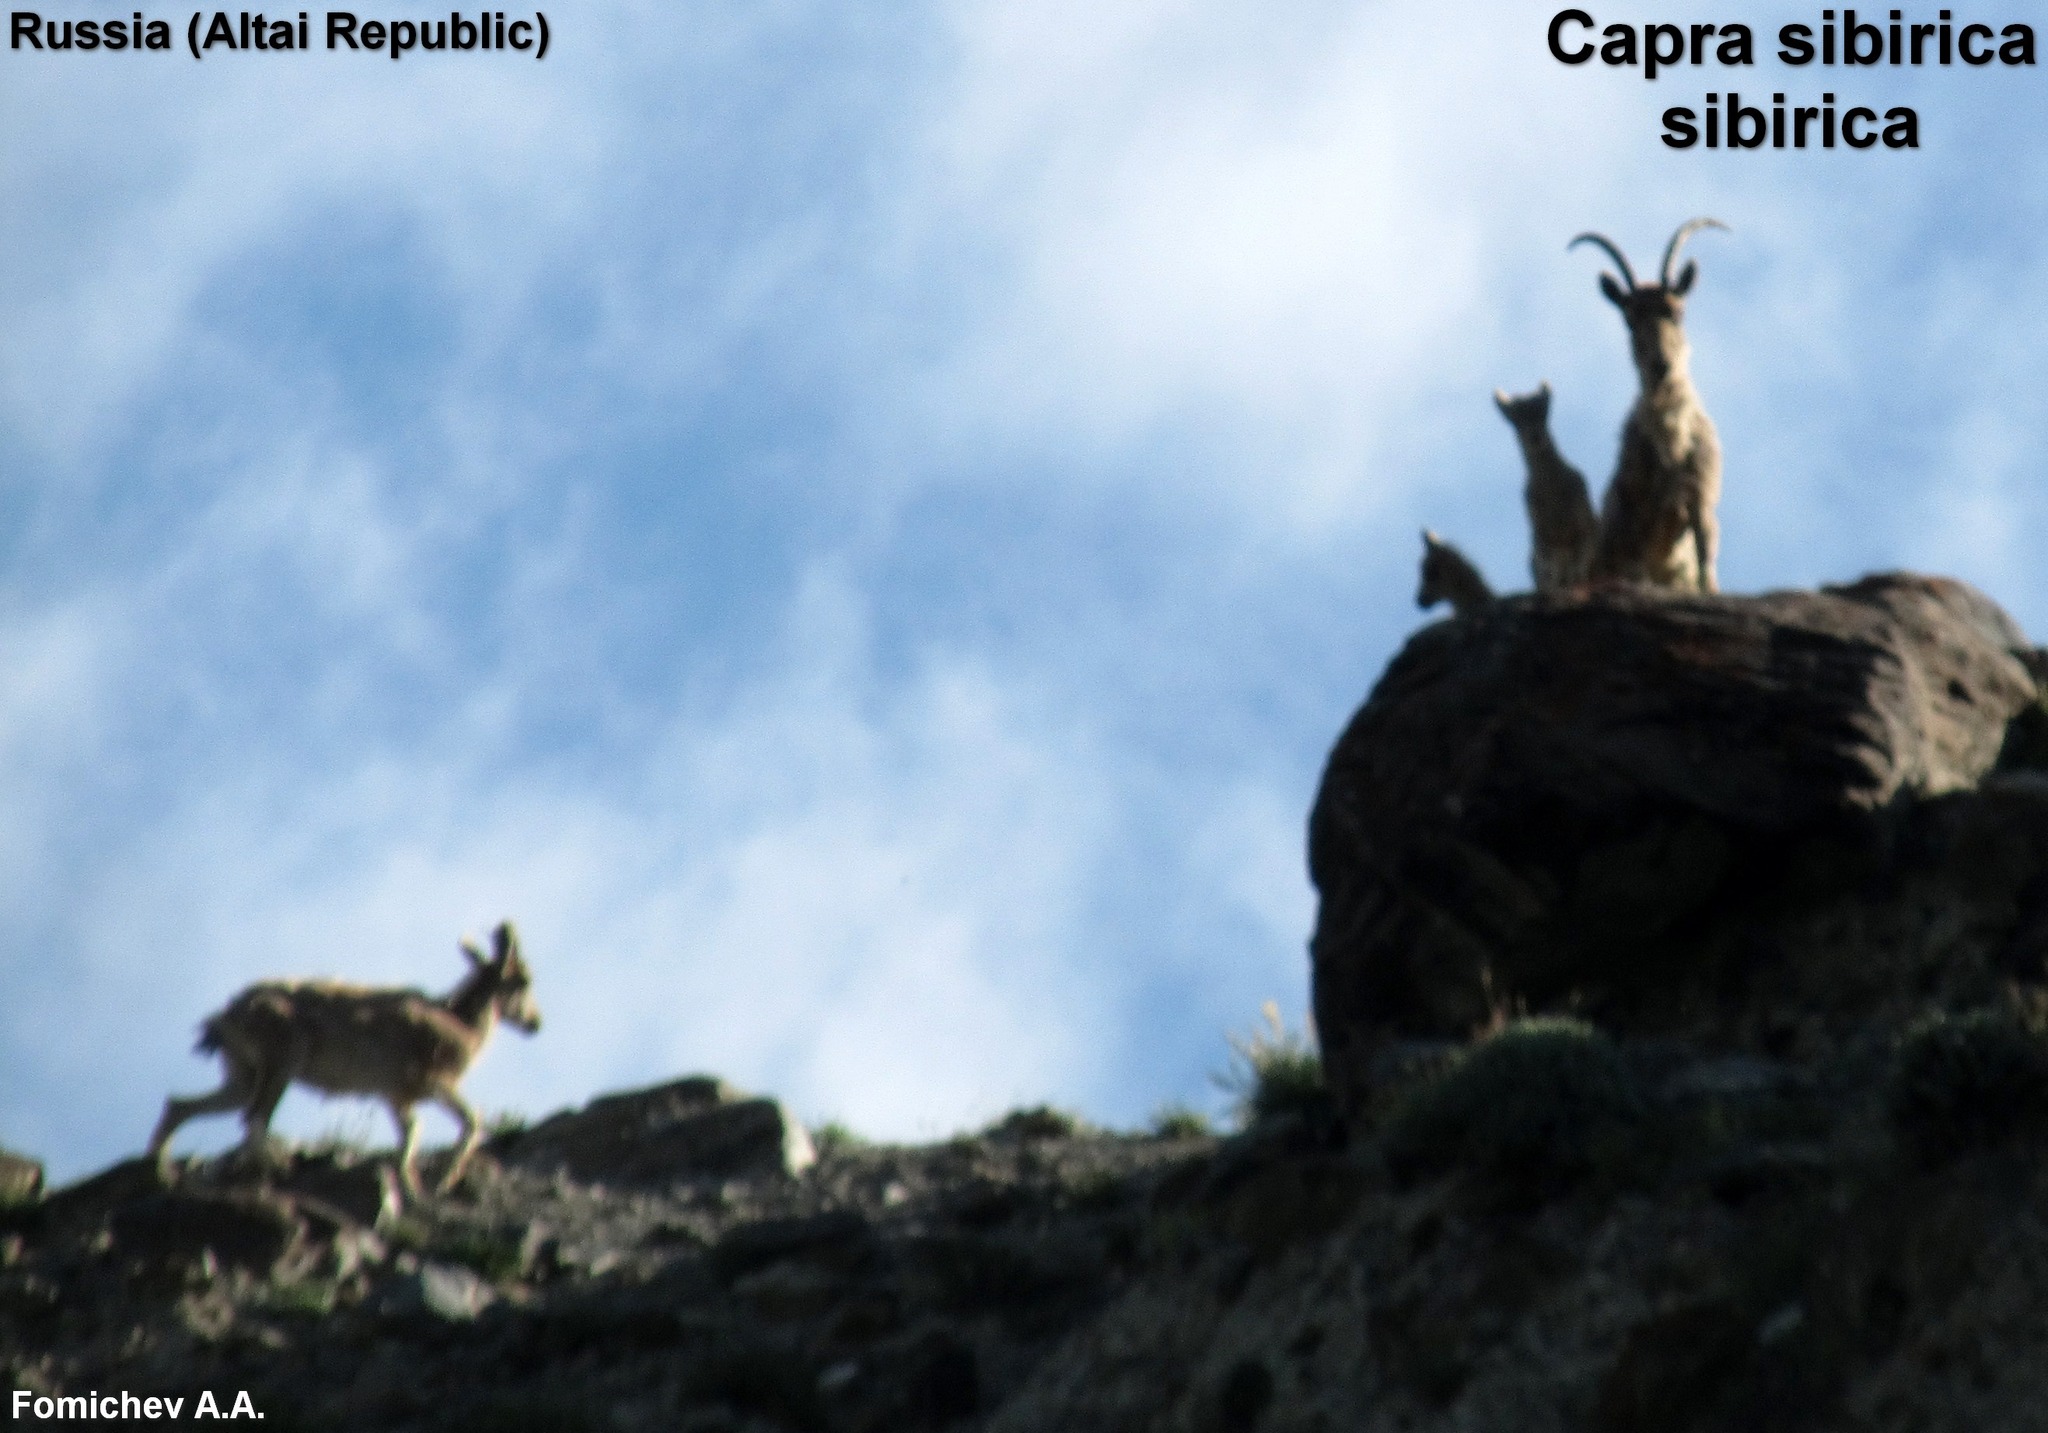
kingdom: Animalia
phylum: Chordata
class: Mammalia
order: Artiodactyla
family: Bovidae
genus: Capra
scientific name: Capra sibirica
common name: Siberian ibex
